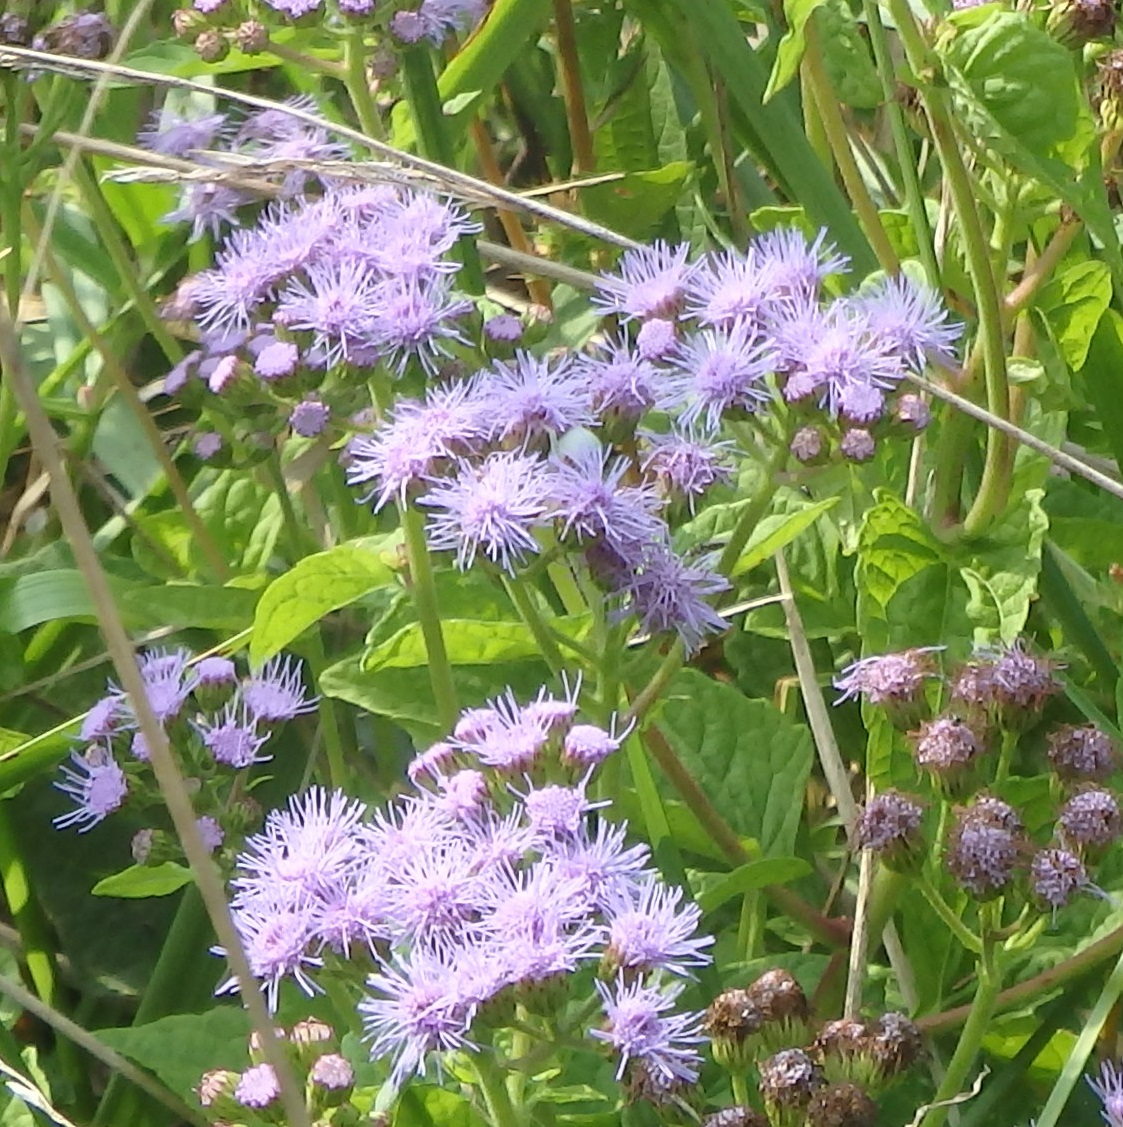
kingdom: Plantae
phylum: Tracheophyta
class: Magnoliopsida
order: Asterales
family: Asteraceae
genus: Conoclinium
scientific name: Conoclinium coelestinum
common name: Blue mistflower
